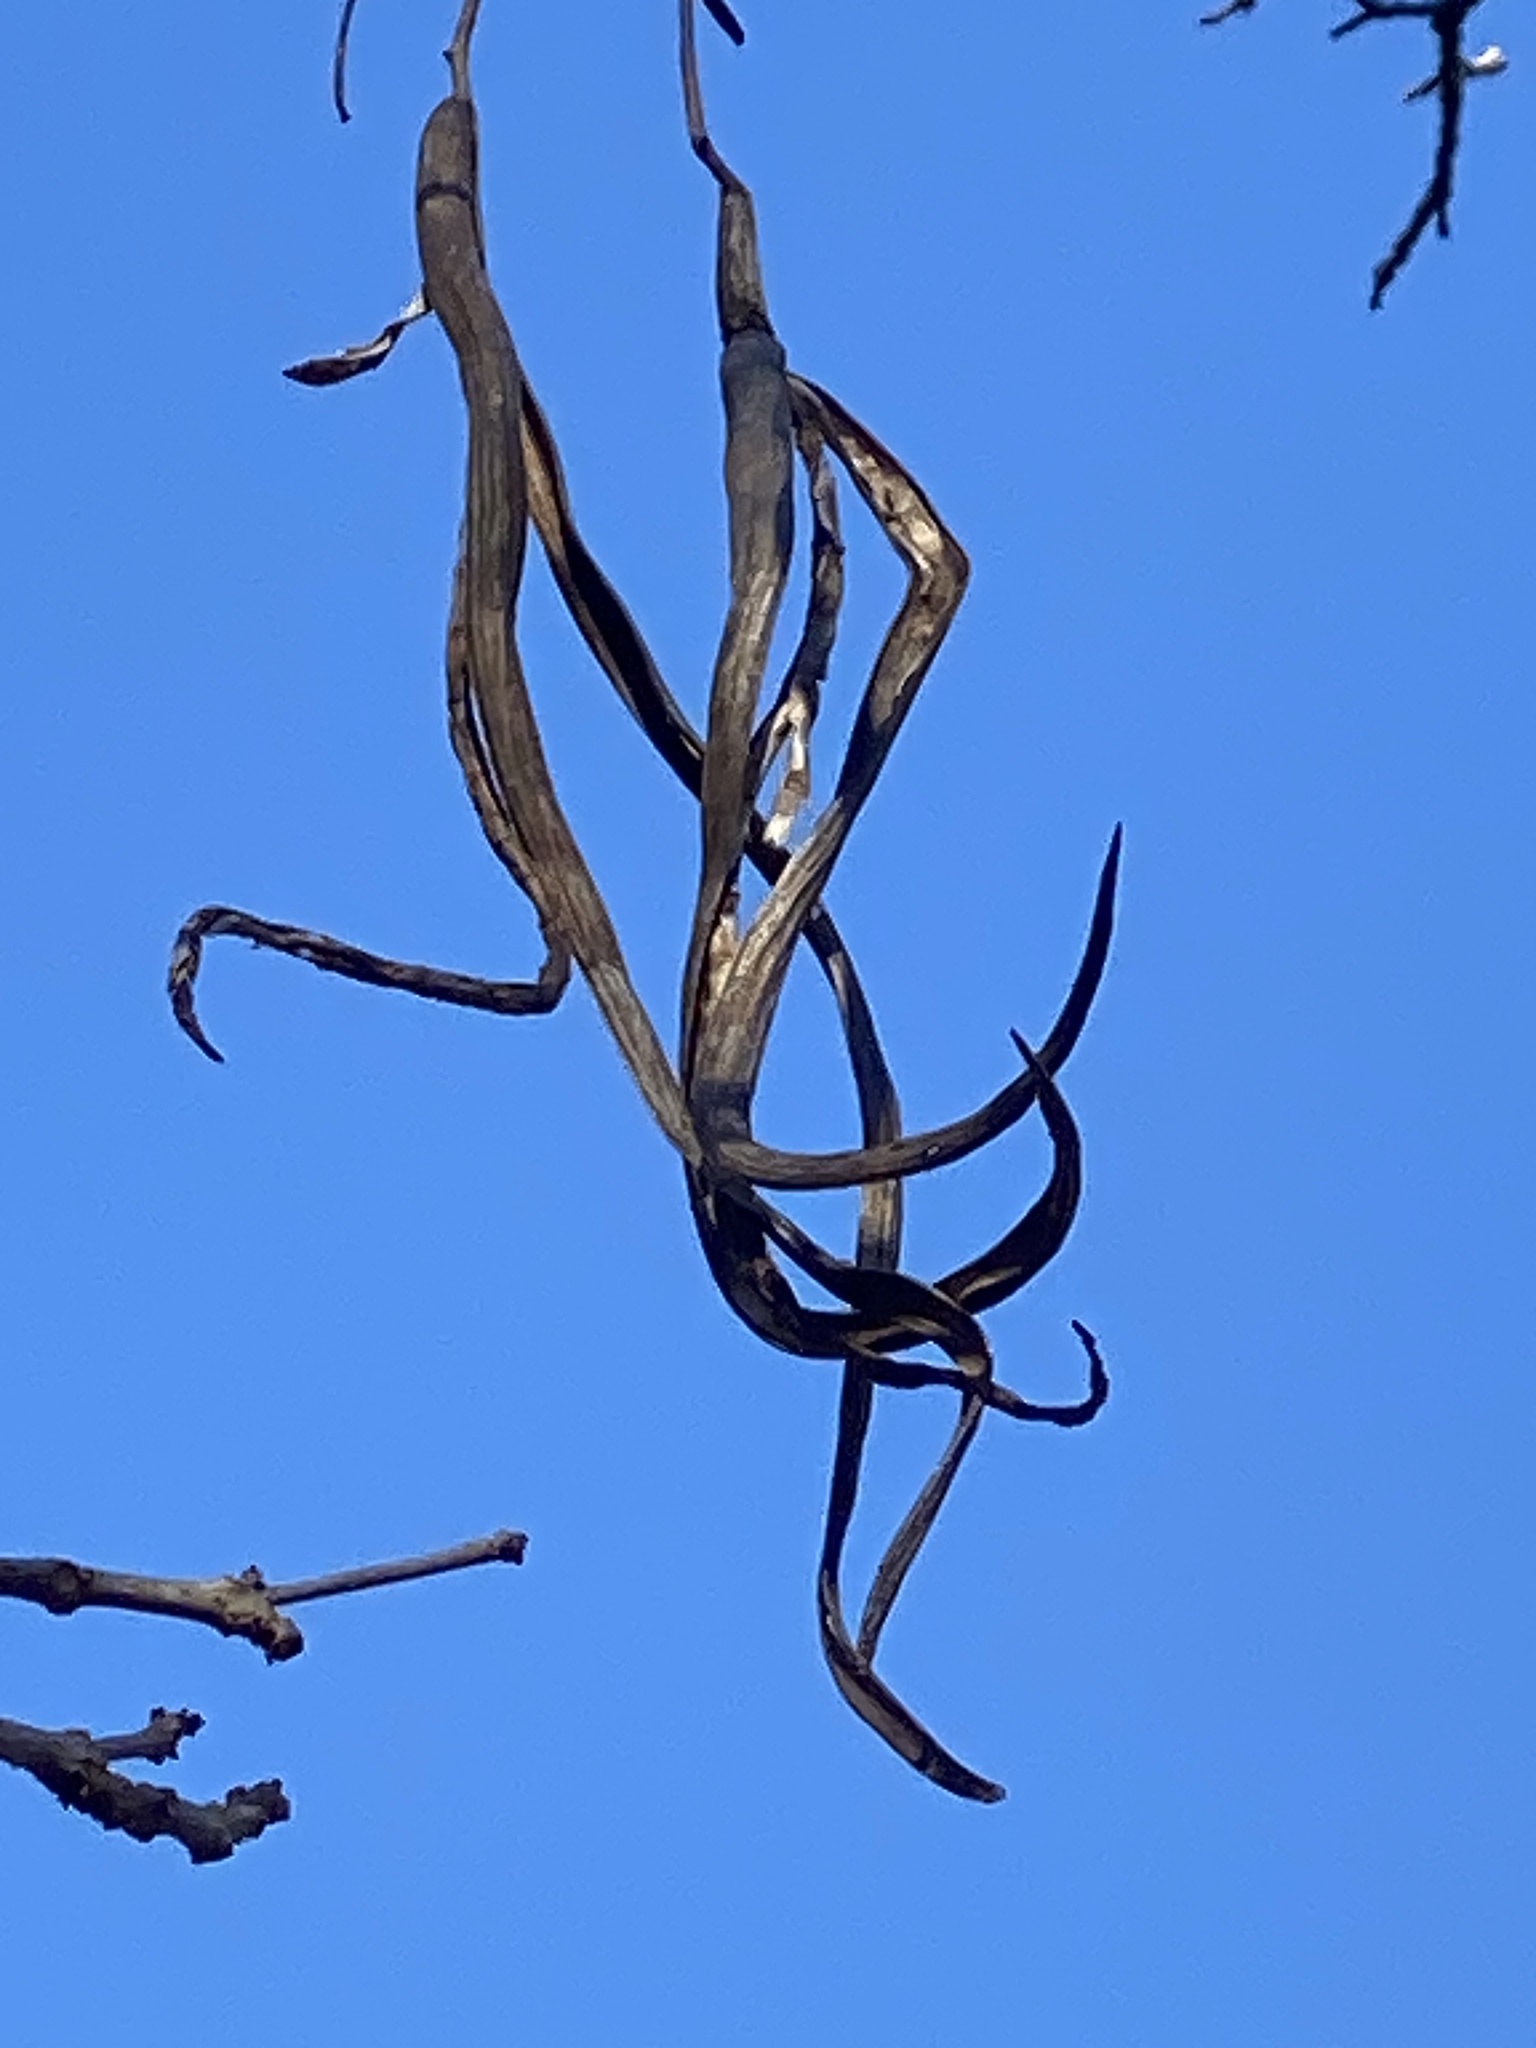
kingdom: Plantae
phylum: Tracheophyta
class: Magnoliopsida
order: Lamiales
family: Bignoniaceae
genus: Catalpa
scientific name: Catalpa
